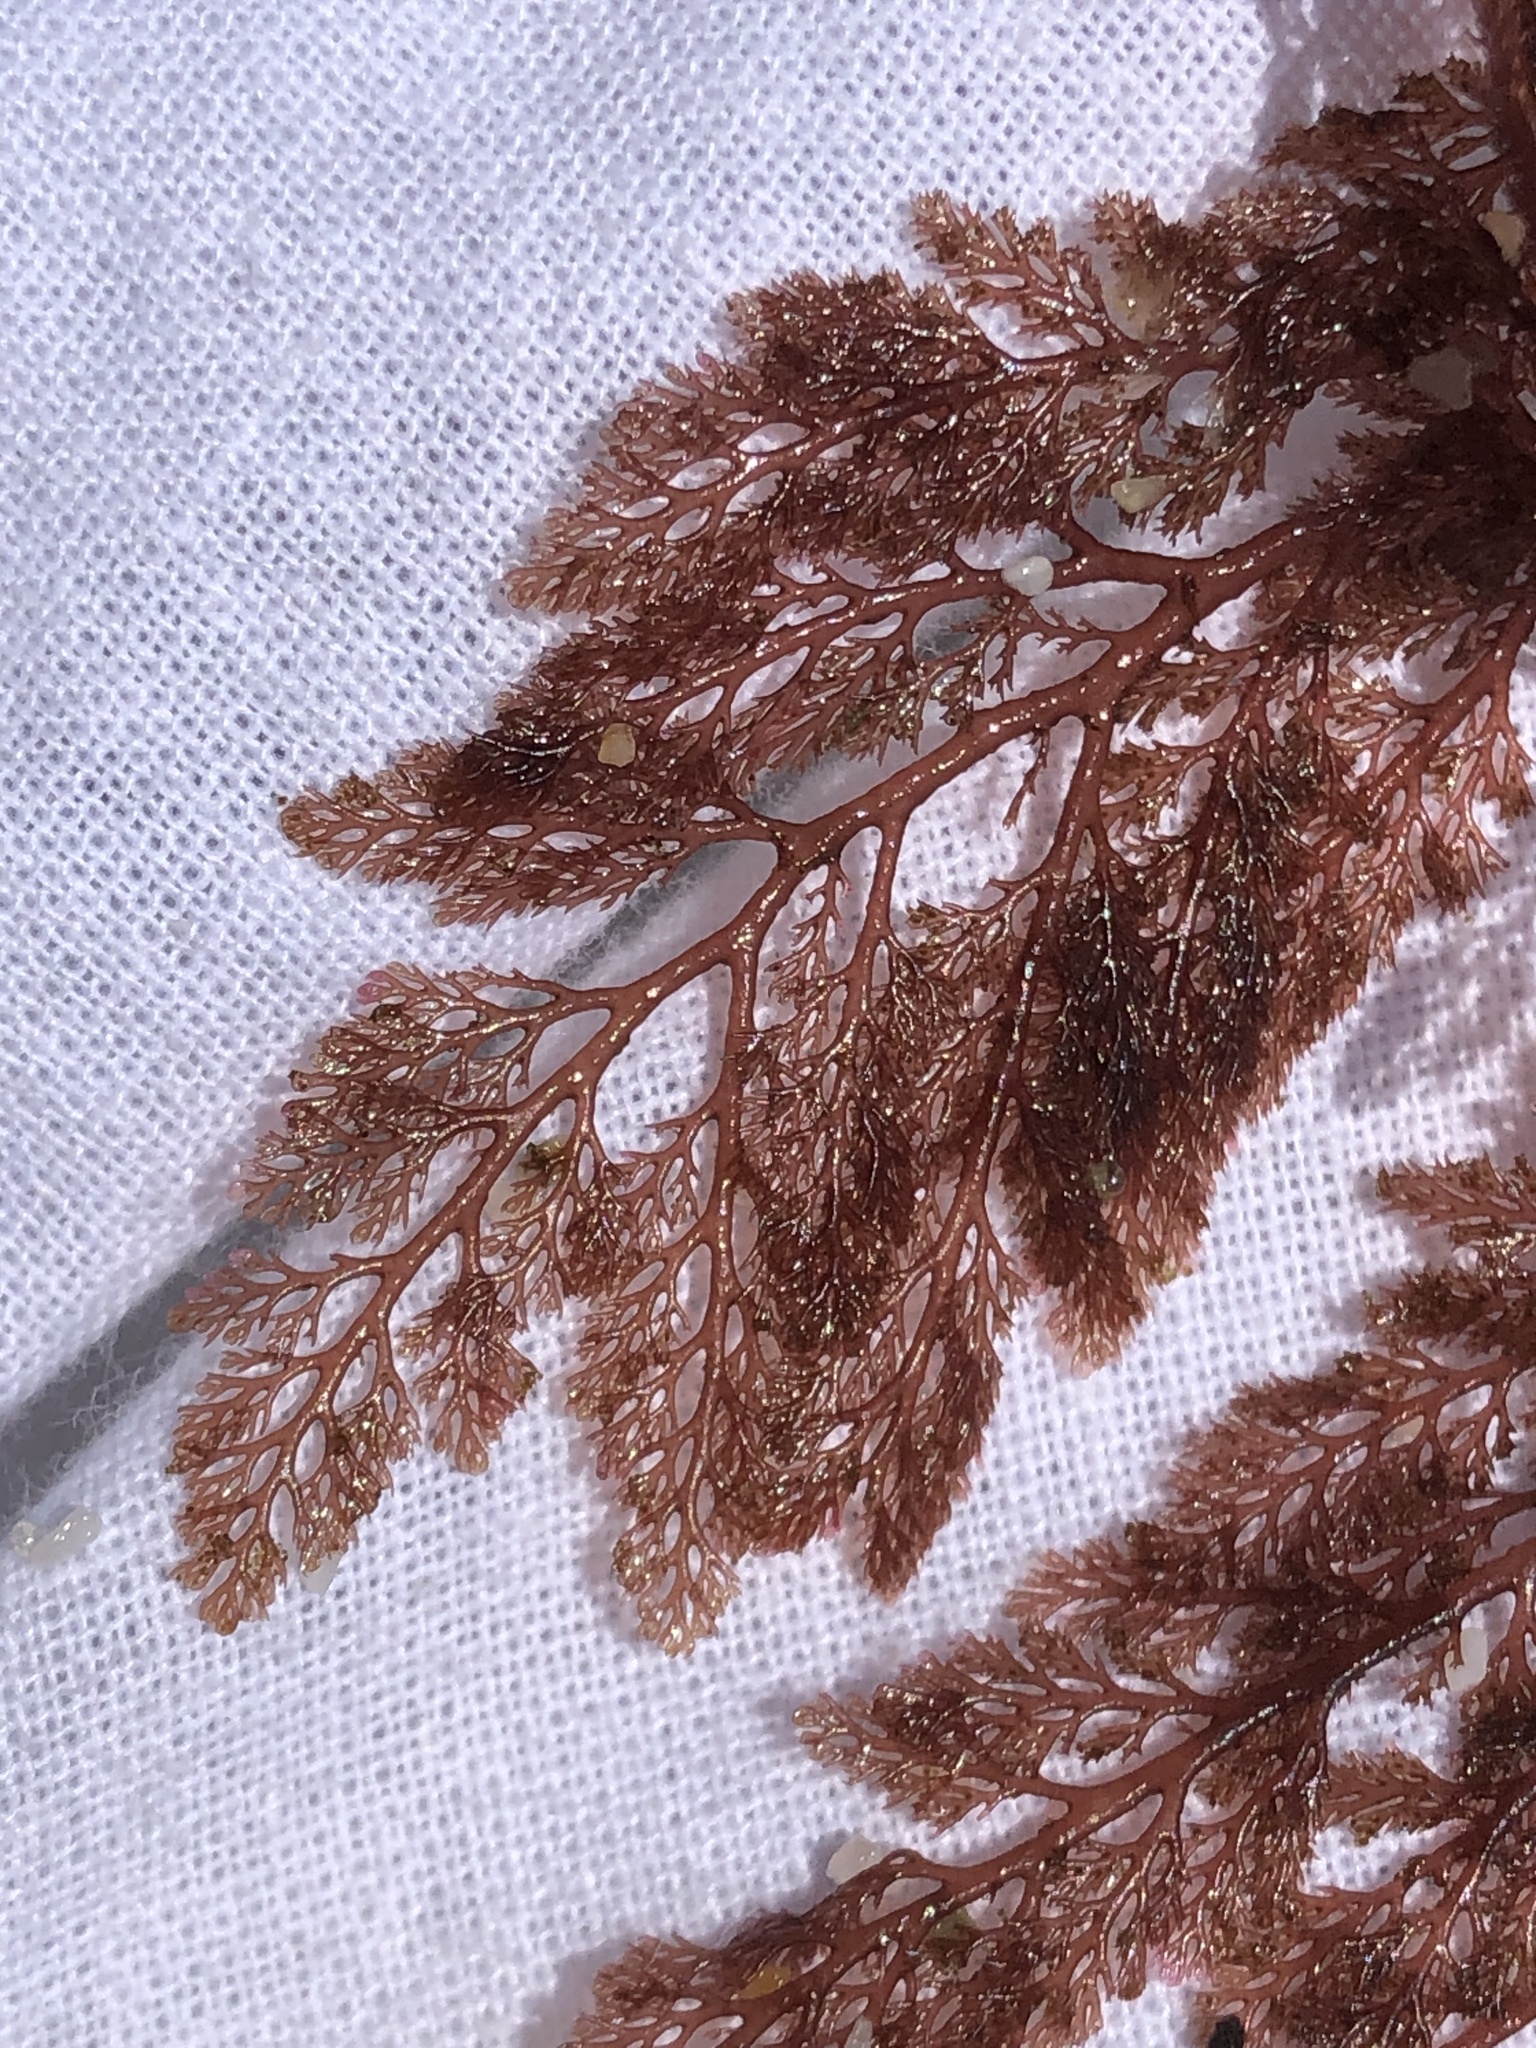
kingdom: Plantae
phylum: Rhodophyta
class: Florideophyceae
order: Ceramiales
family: Ceramiaceae
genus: Microcladia
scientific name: Microcladia coulteri
